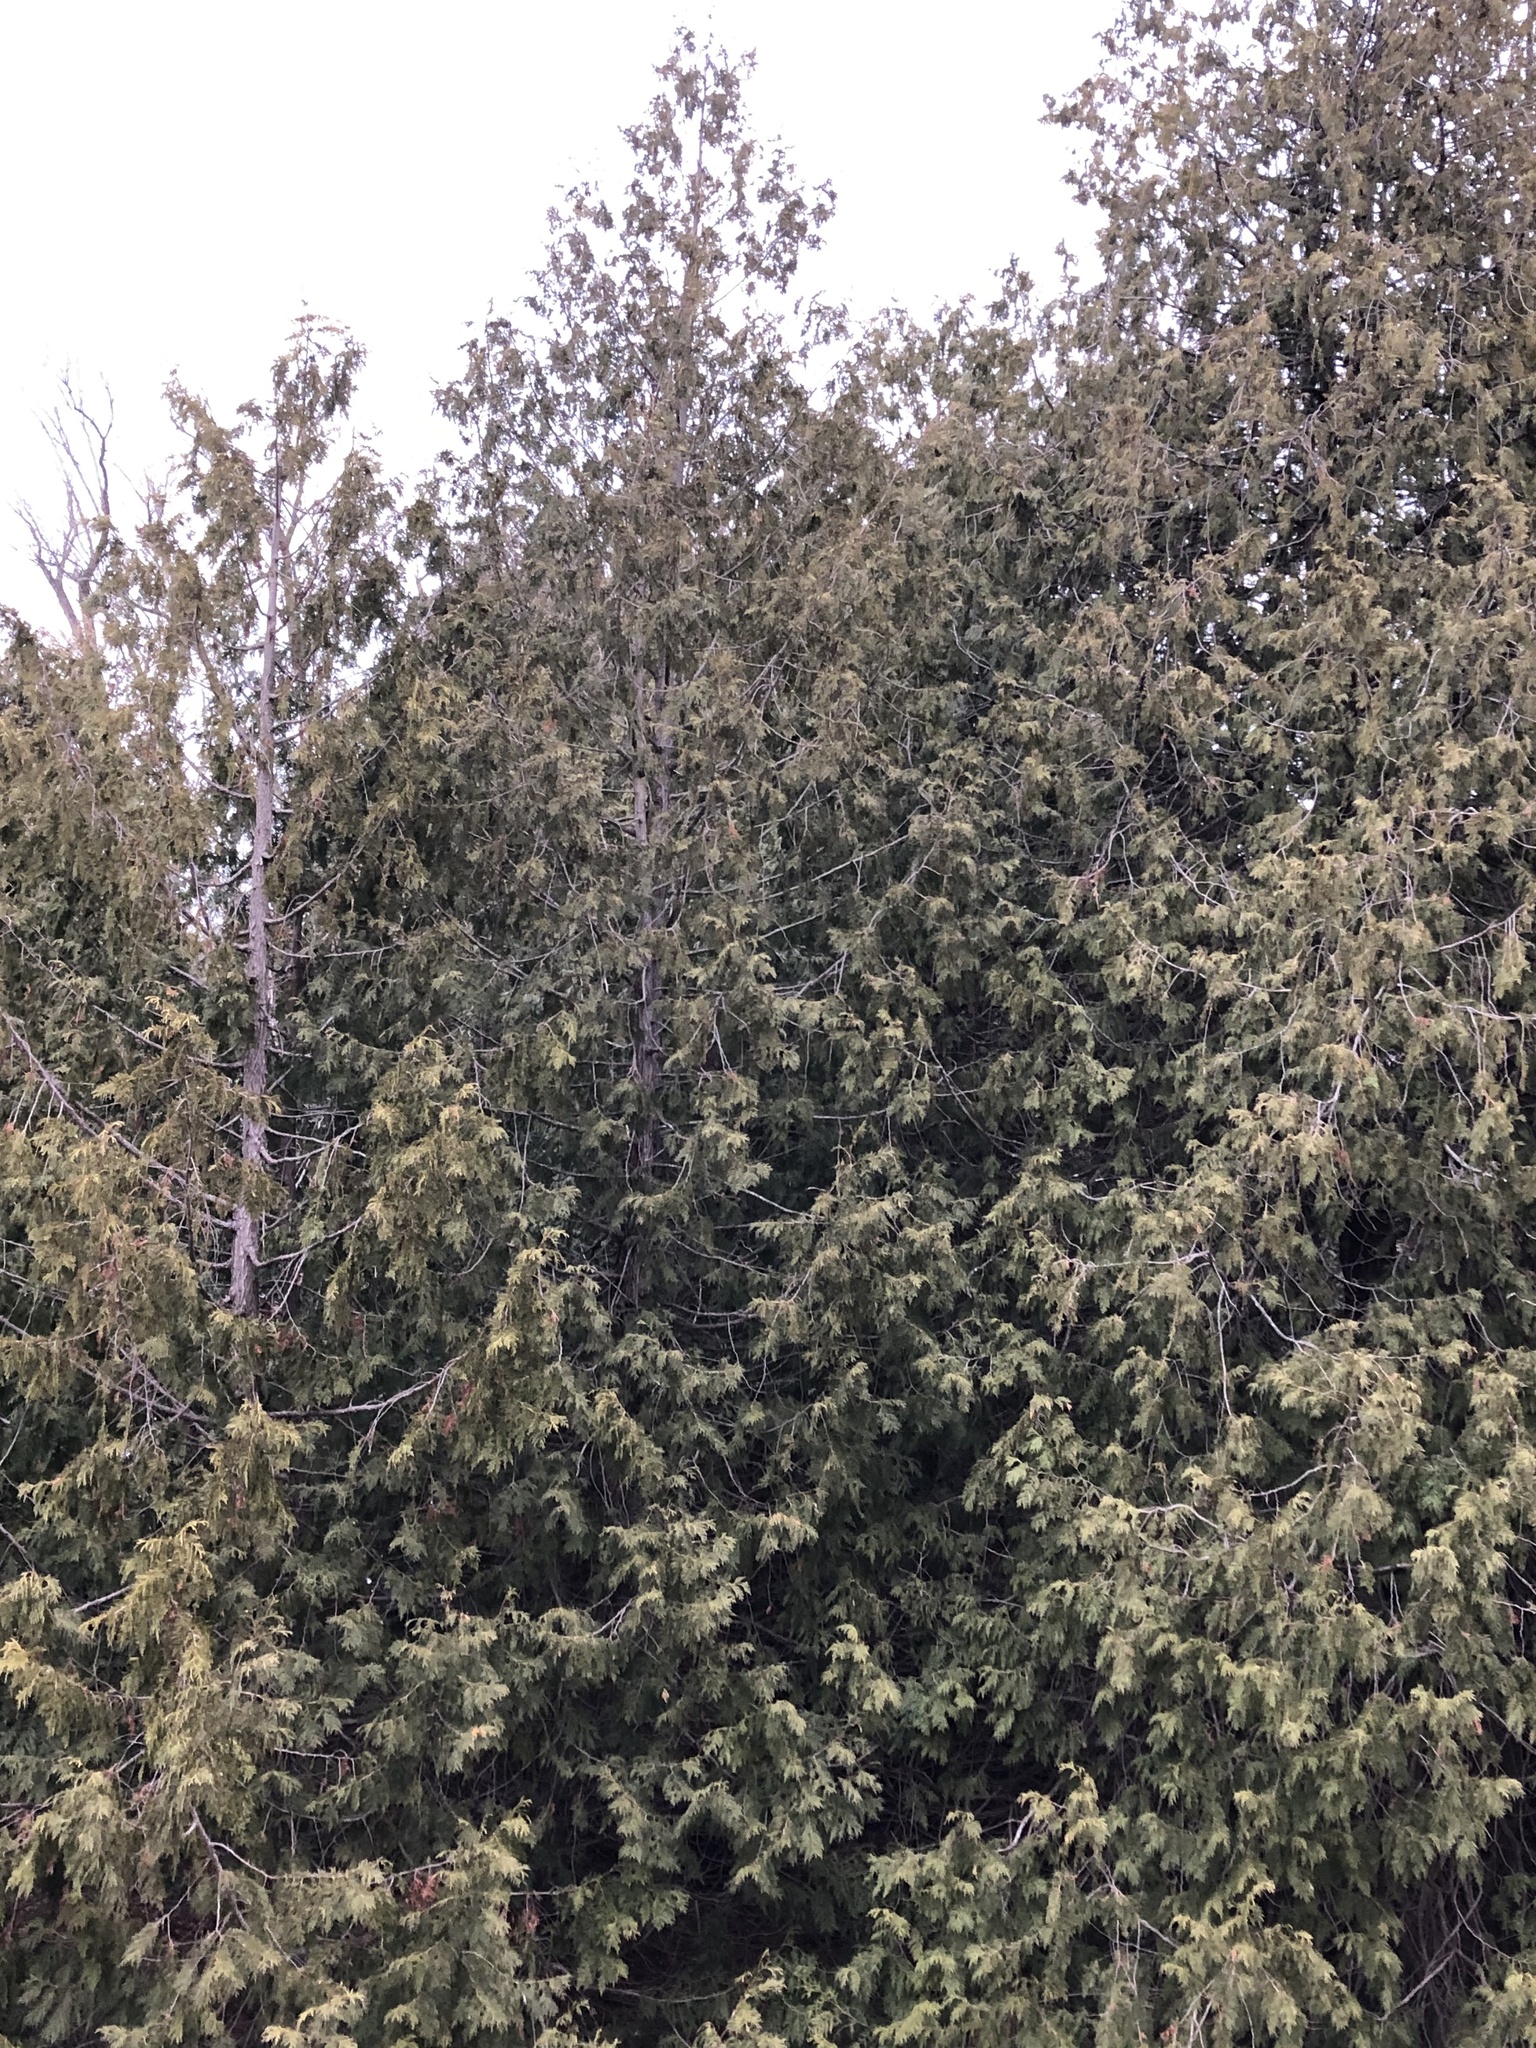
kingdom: Plantae
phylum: Tracheophyta
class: Pinopsida
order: Pinales
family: Cupressaceae
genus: Thuja
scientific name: Thuja occidentalis
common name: Northern white-cedar
